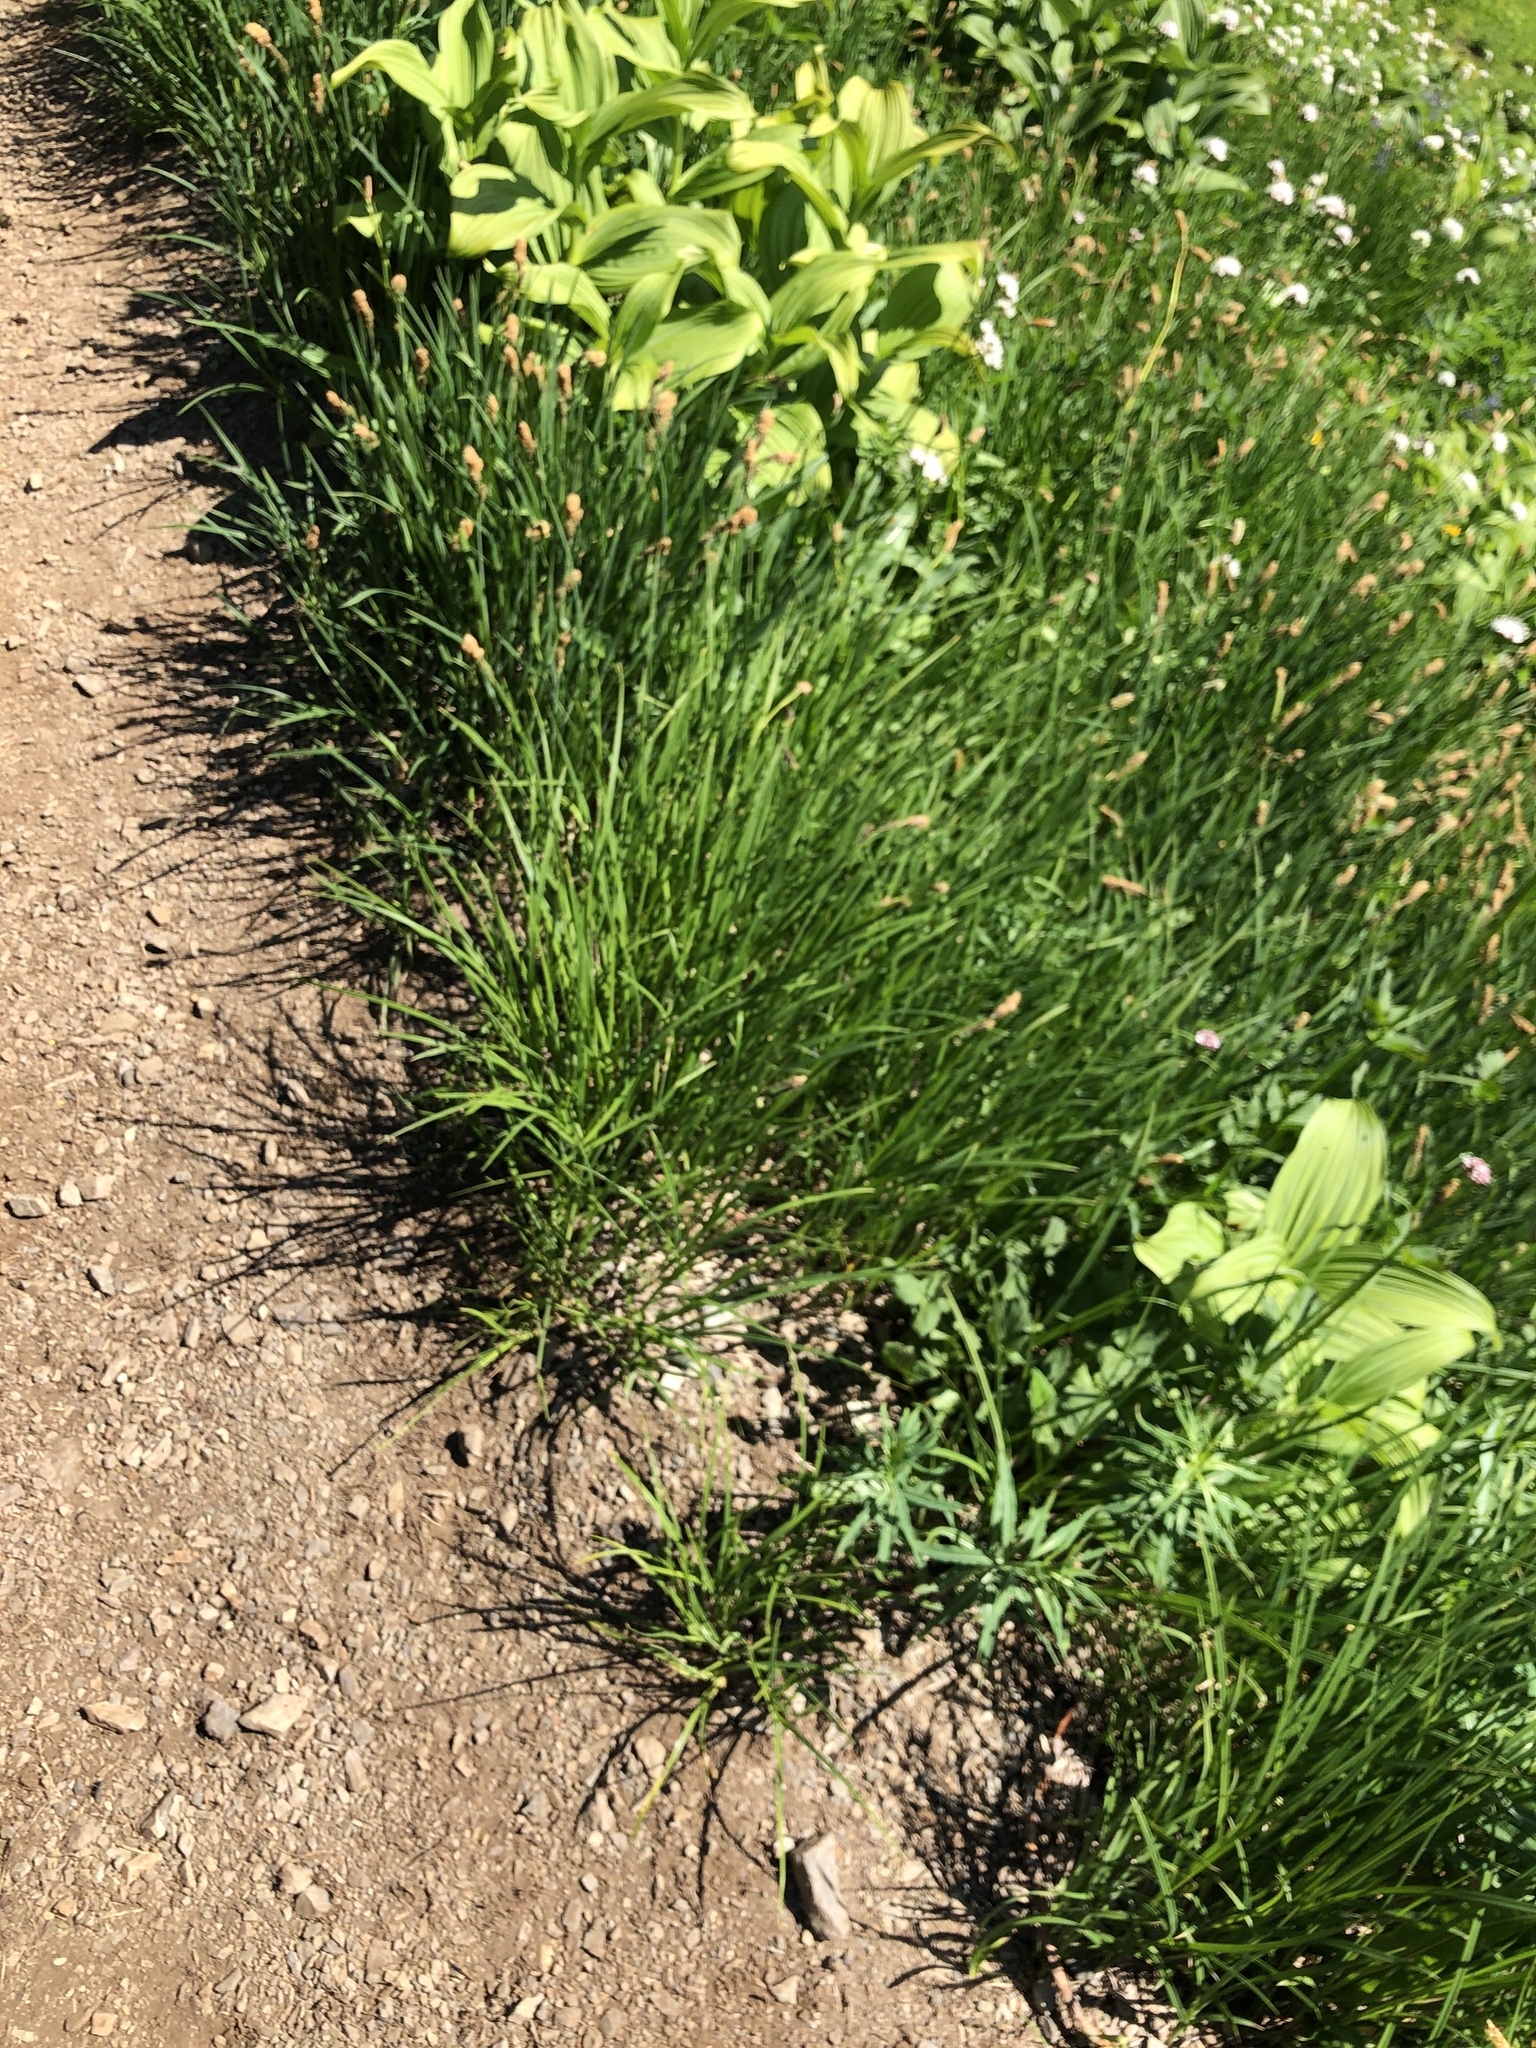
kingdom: Plantae
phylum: Tracheophyta
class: Liliopsida
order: Liliales
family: Melanthiaceae
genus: Veratrum
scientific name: Veratrum viride
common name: American false hellebore
